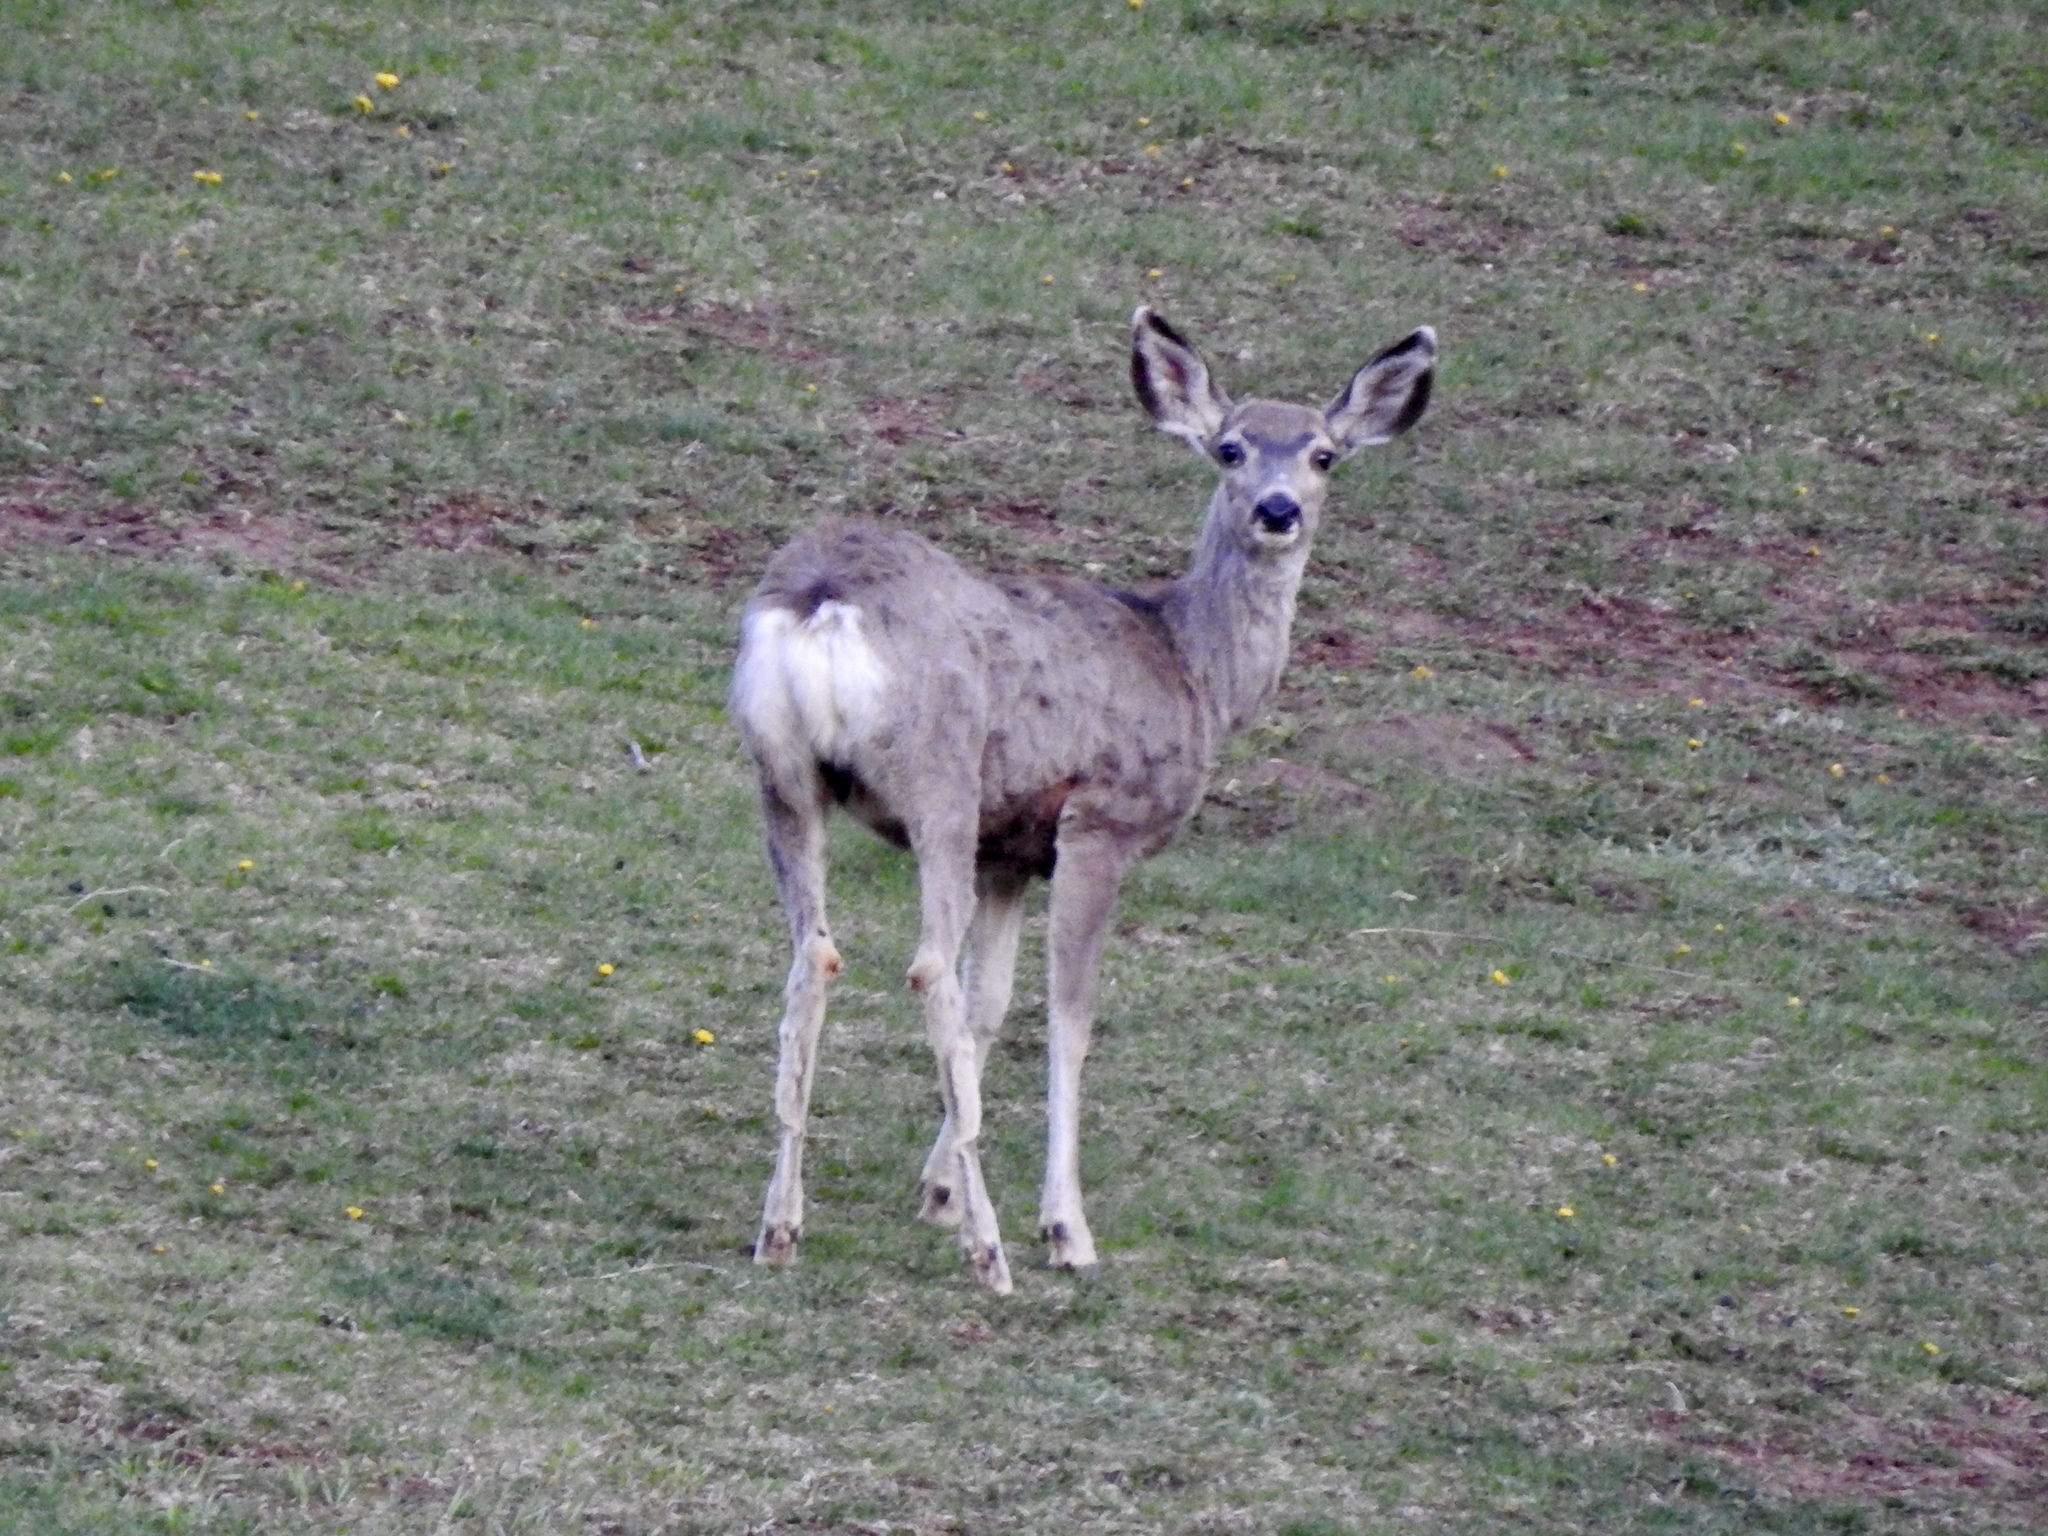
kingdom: Animalia
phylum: Chordata
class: Mammalia
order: Artiodactyla
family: Cervidae
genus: Odocoileus
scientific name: Odocoileus hemionus
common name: Mule deer
